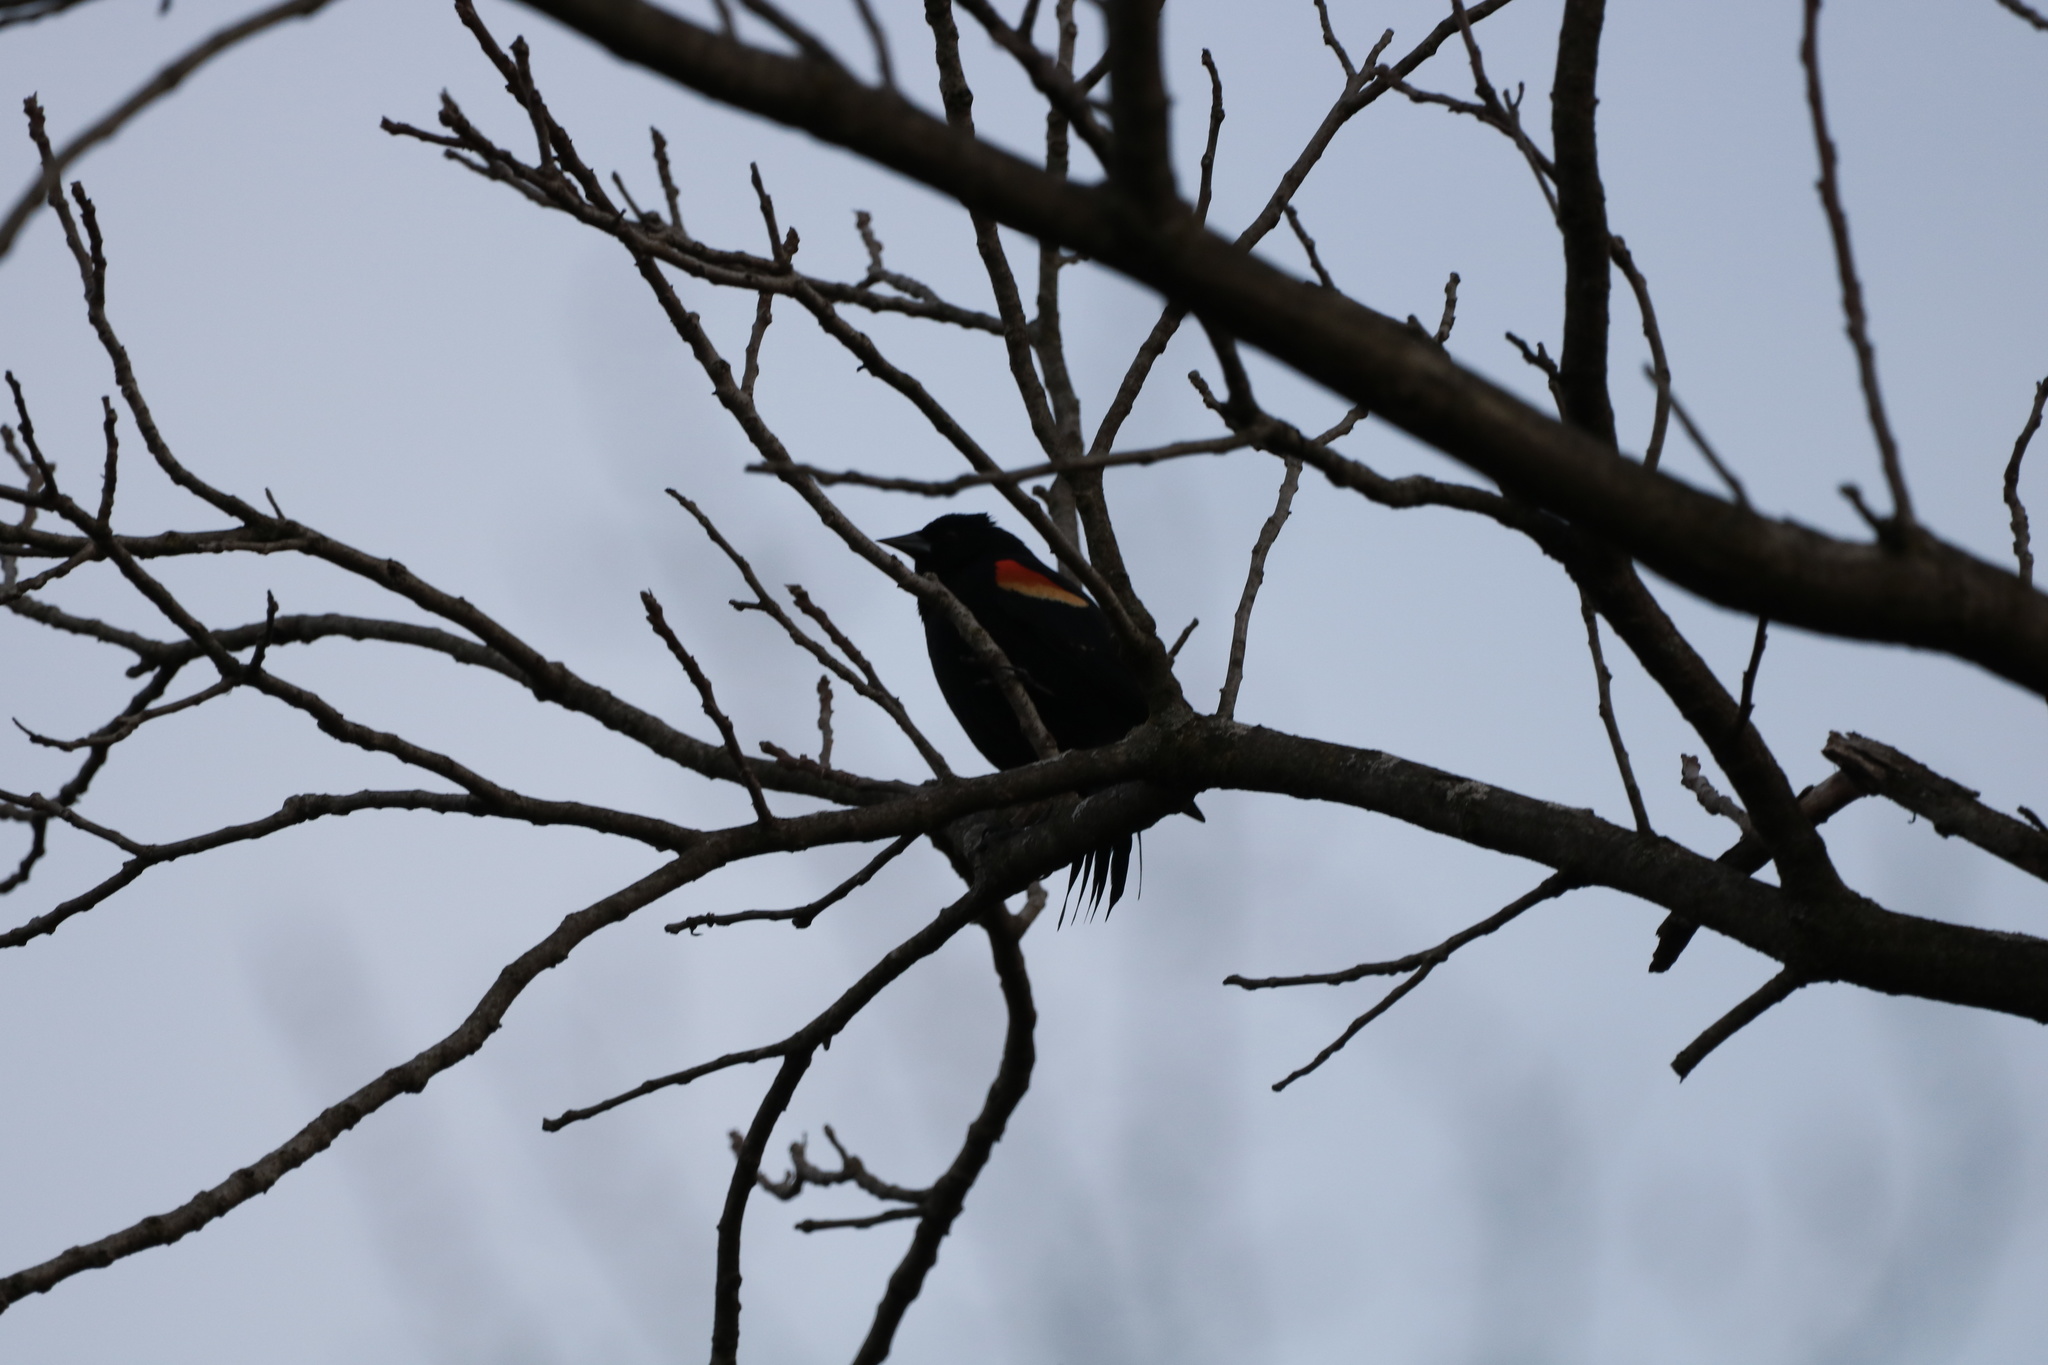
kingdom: Animalia
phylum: Chordata
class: Aves
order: Passeriformes
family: Icteridae
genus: Agelaius
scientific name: Agelaius phoeniceus
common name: Red-winged blackbird
